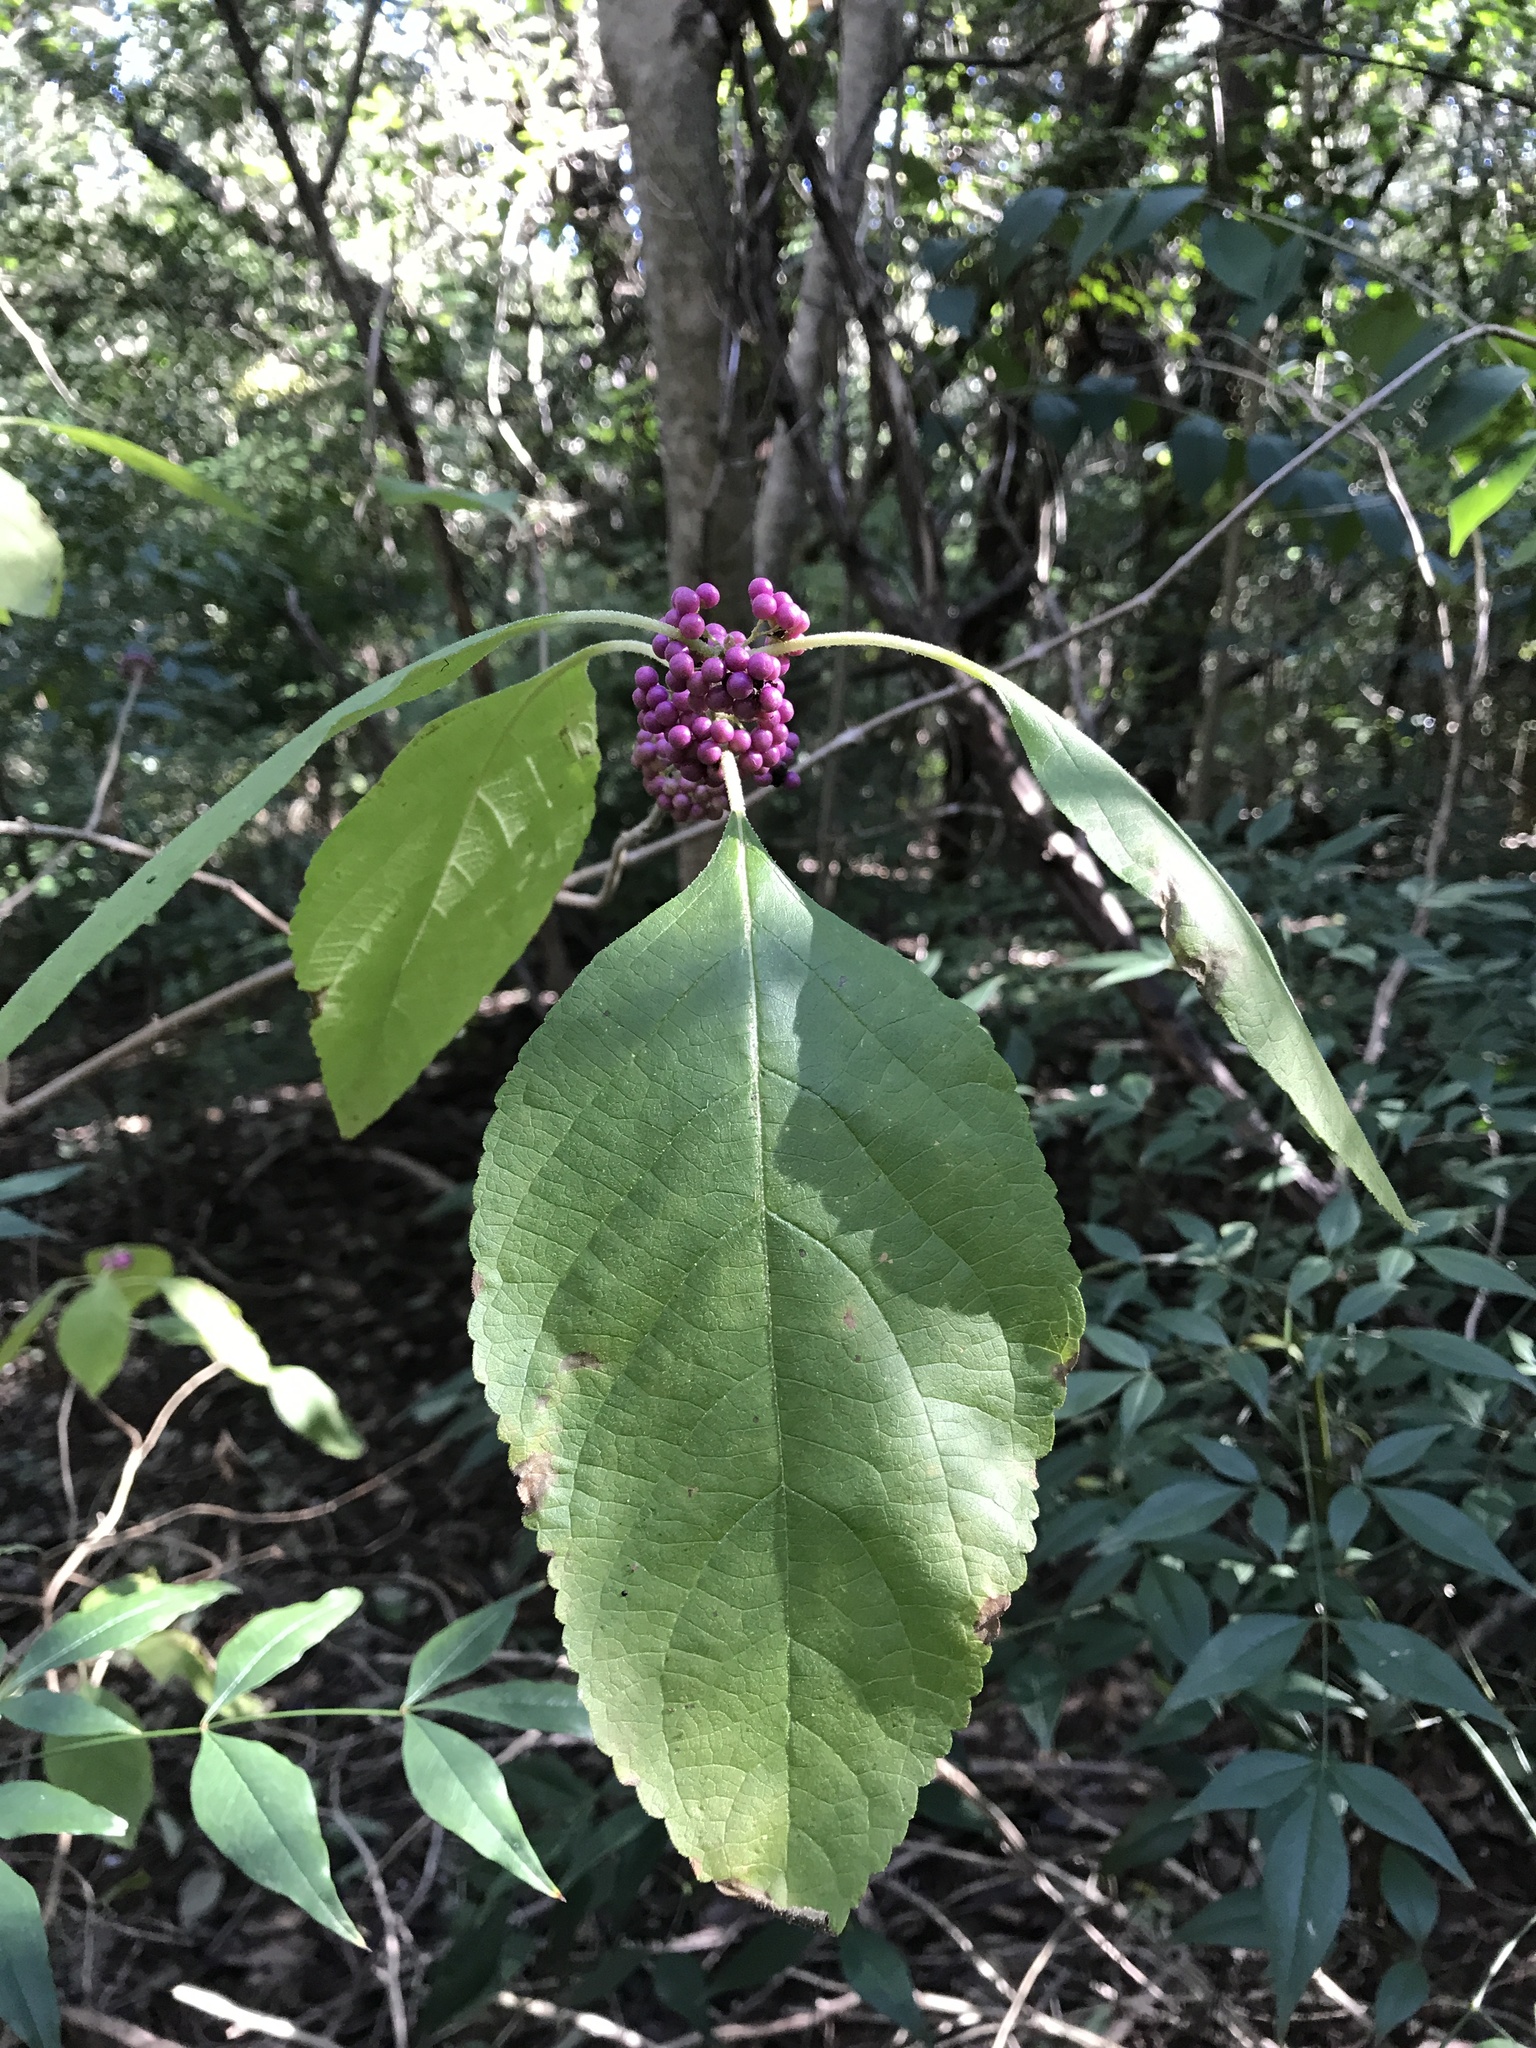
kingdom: Plantae
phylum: Tracheophyta
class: Magnoliopsida
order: Lamiales
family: Lamiaceae
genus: Callicarpa
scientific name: Callicarpa americana
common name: American beautyberry
